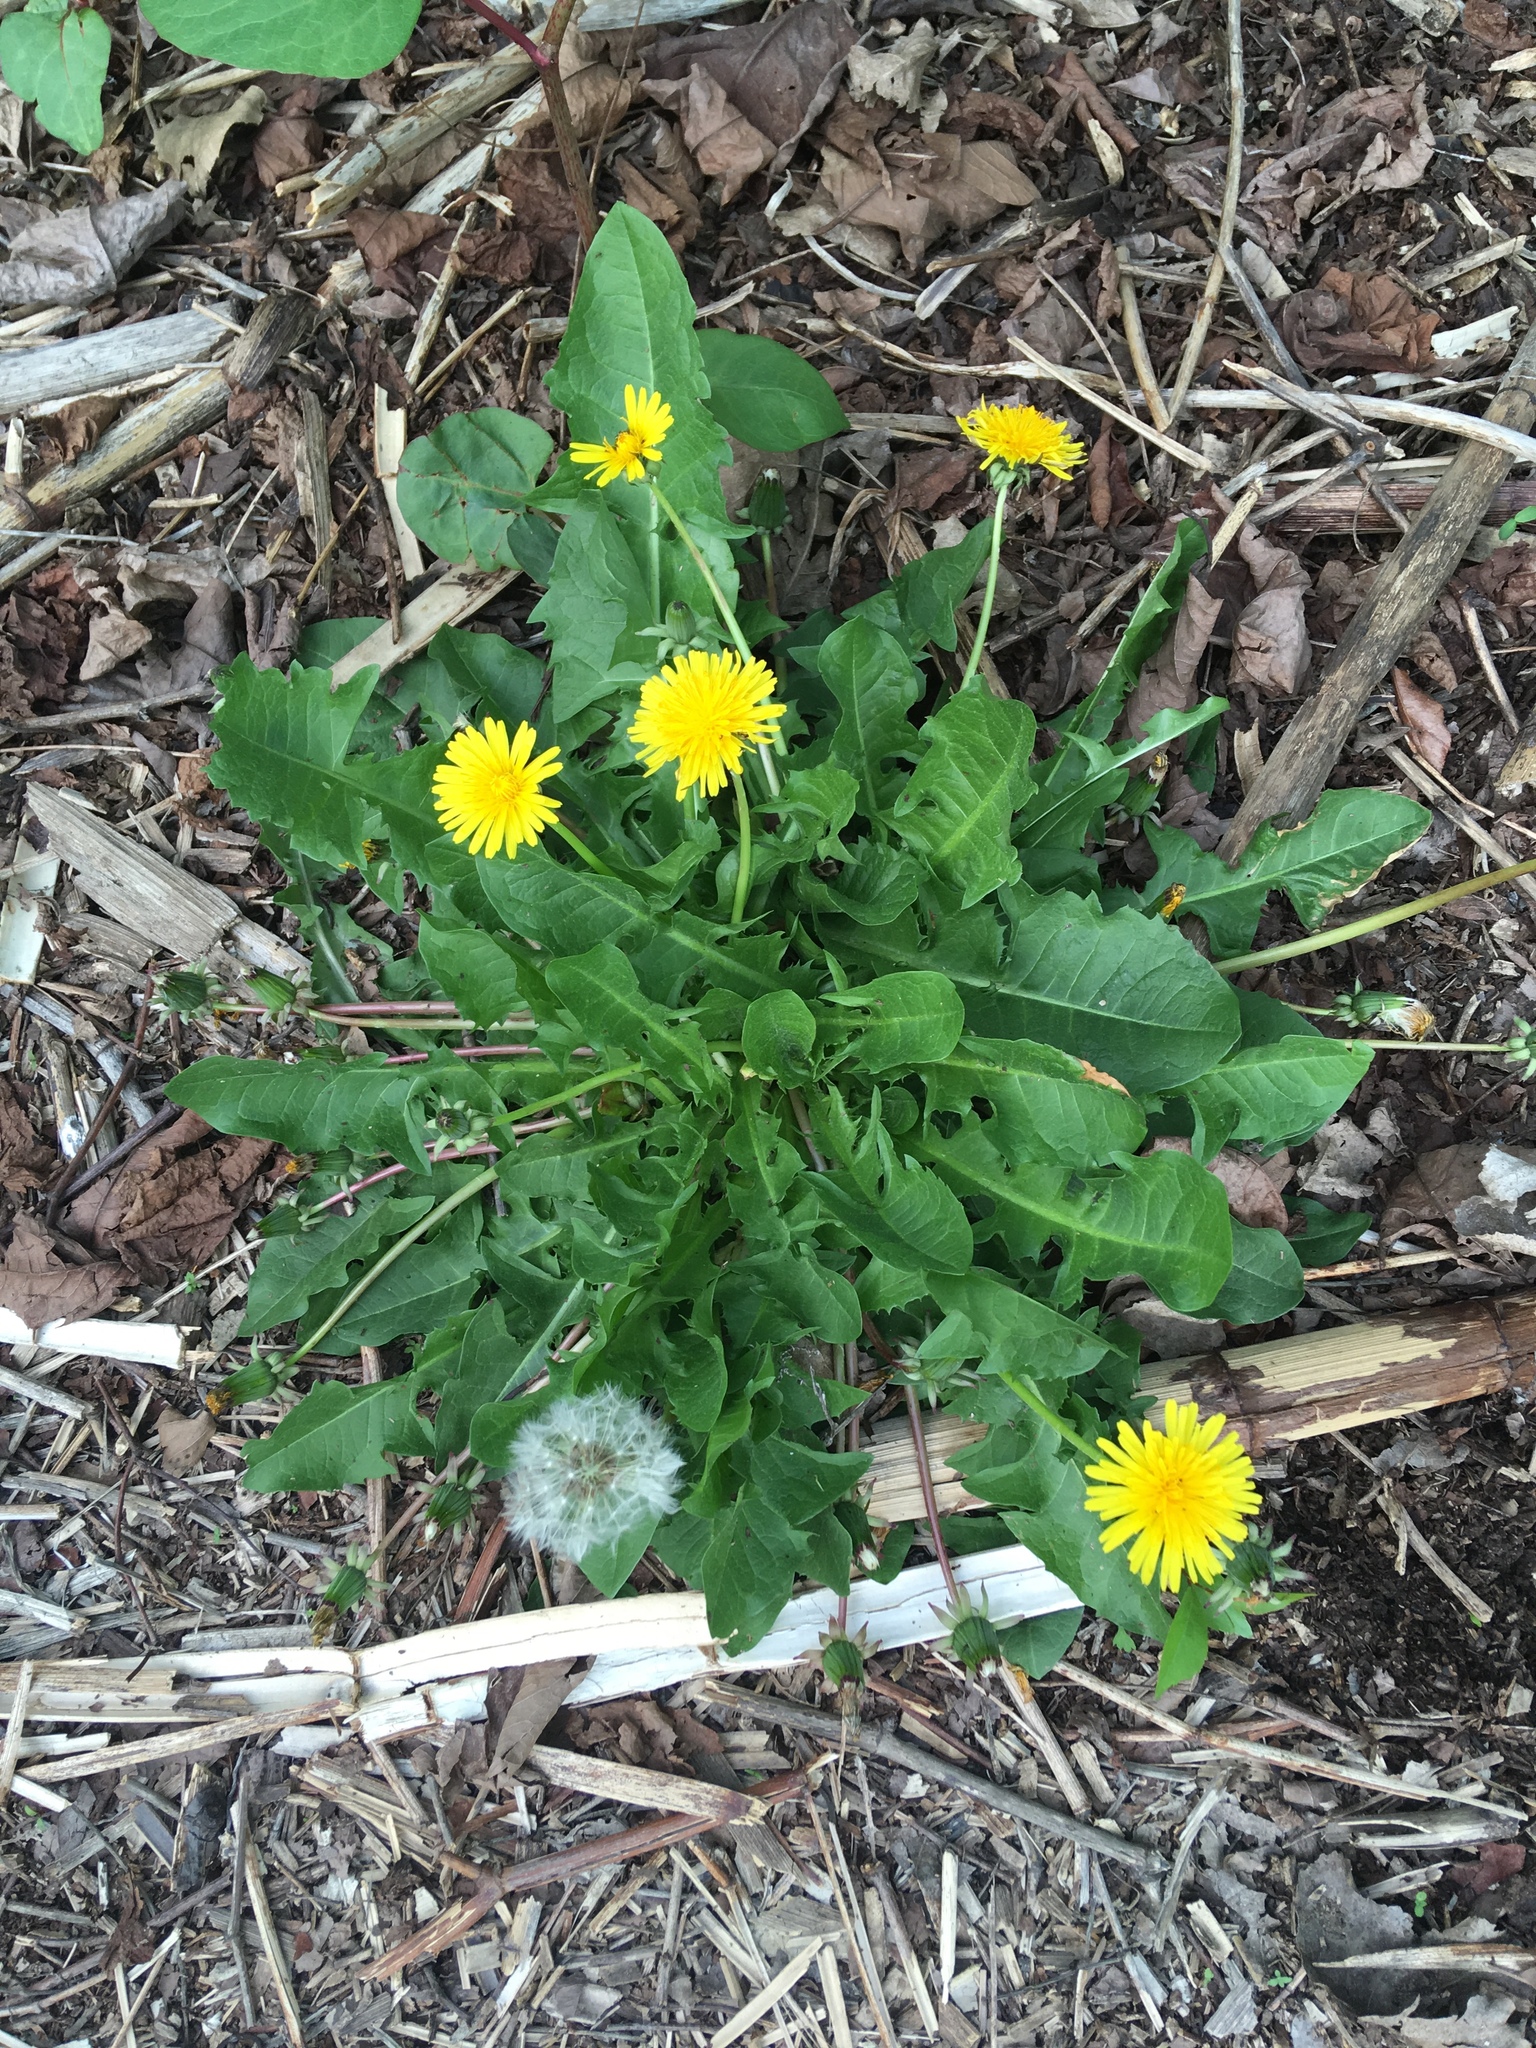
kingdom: Plantae
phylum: Tracheophyta
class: Magnoliopsida
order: Asterales
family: Asteraceae
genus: Taraxacum
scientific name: Taraxacum officinale
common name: Common dandelion
